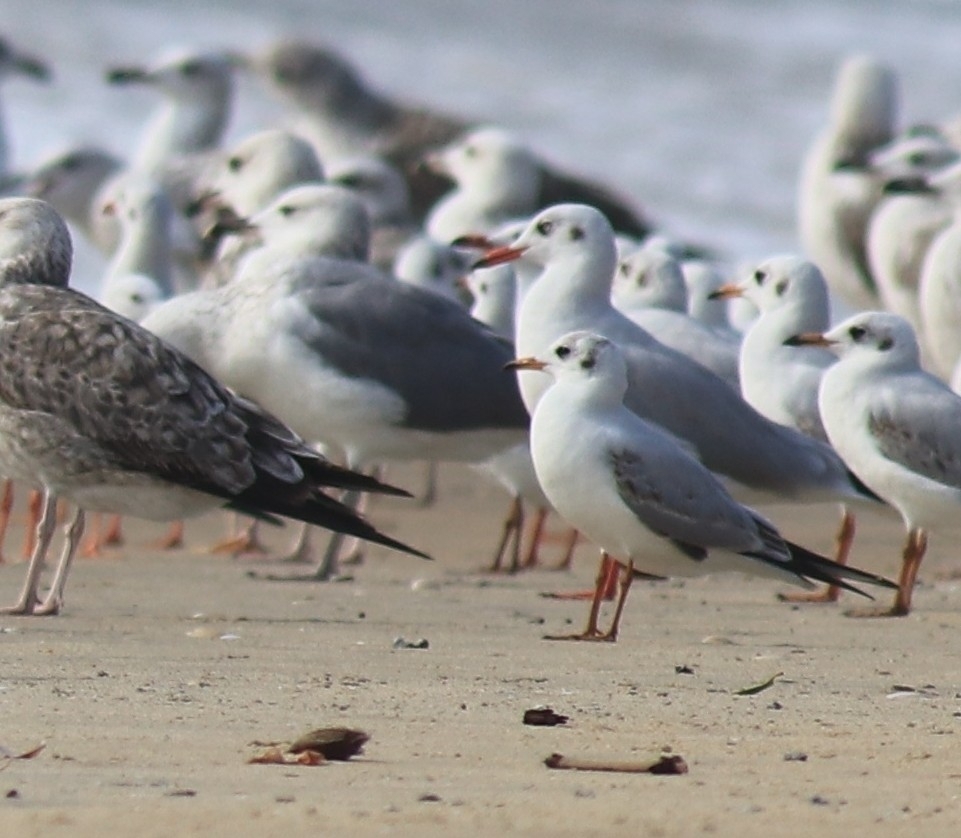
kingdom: Animalia
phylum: Chordata
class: Aves
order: Charadriiformes
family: Laridae
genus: Chroicocephalus
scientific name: Chroicocephalus ridibundus
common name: Black-headed gull
